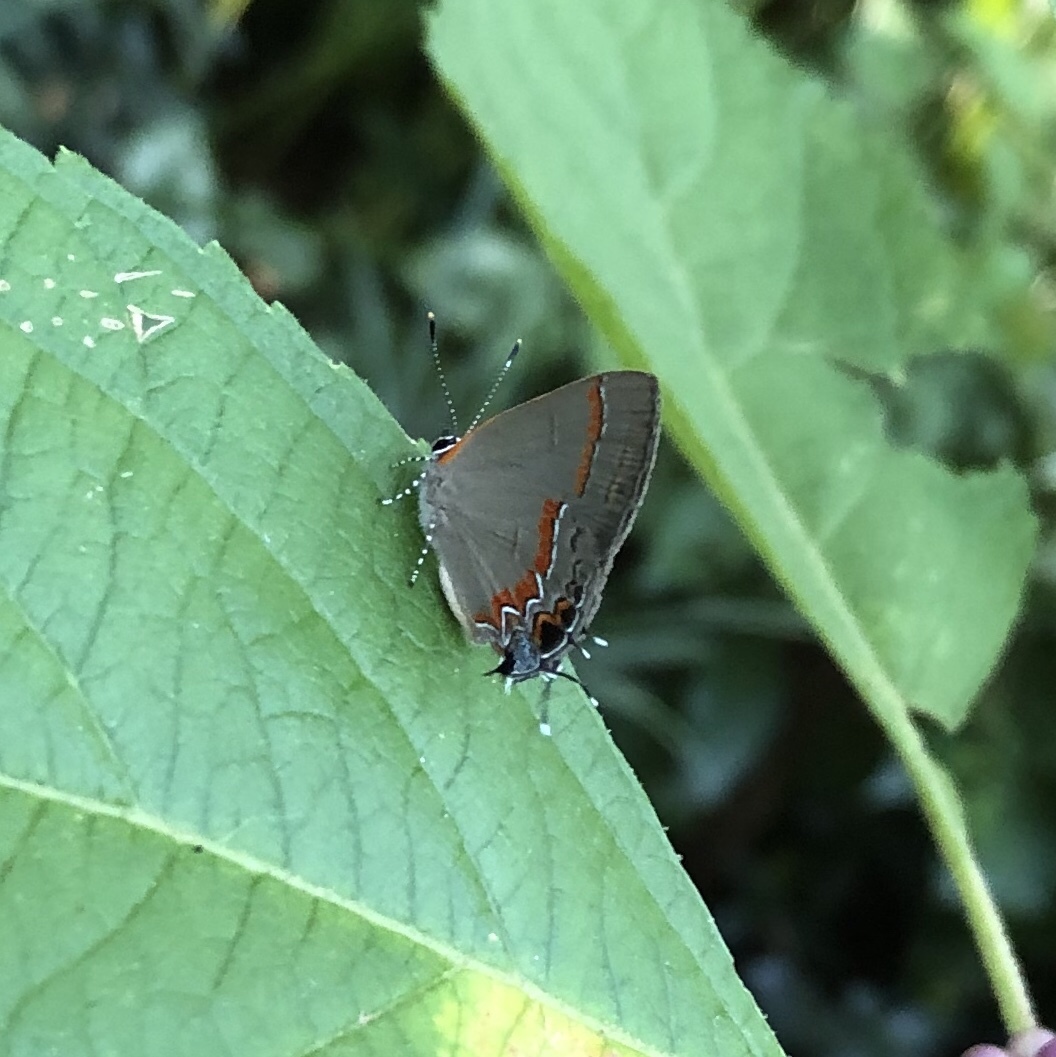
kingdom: Animalia
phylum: Arthropoda
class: Insecta
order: Lepidoptera
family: Lycaenidae
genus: Calycopis
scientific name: Calycopis cecrops
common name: Red-banded hairstreak
